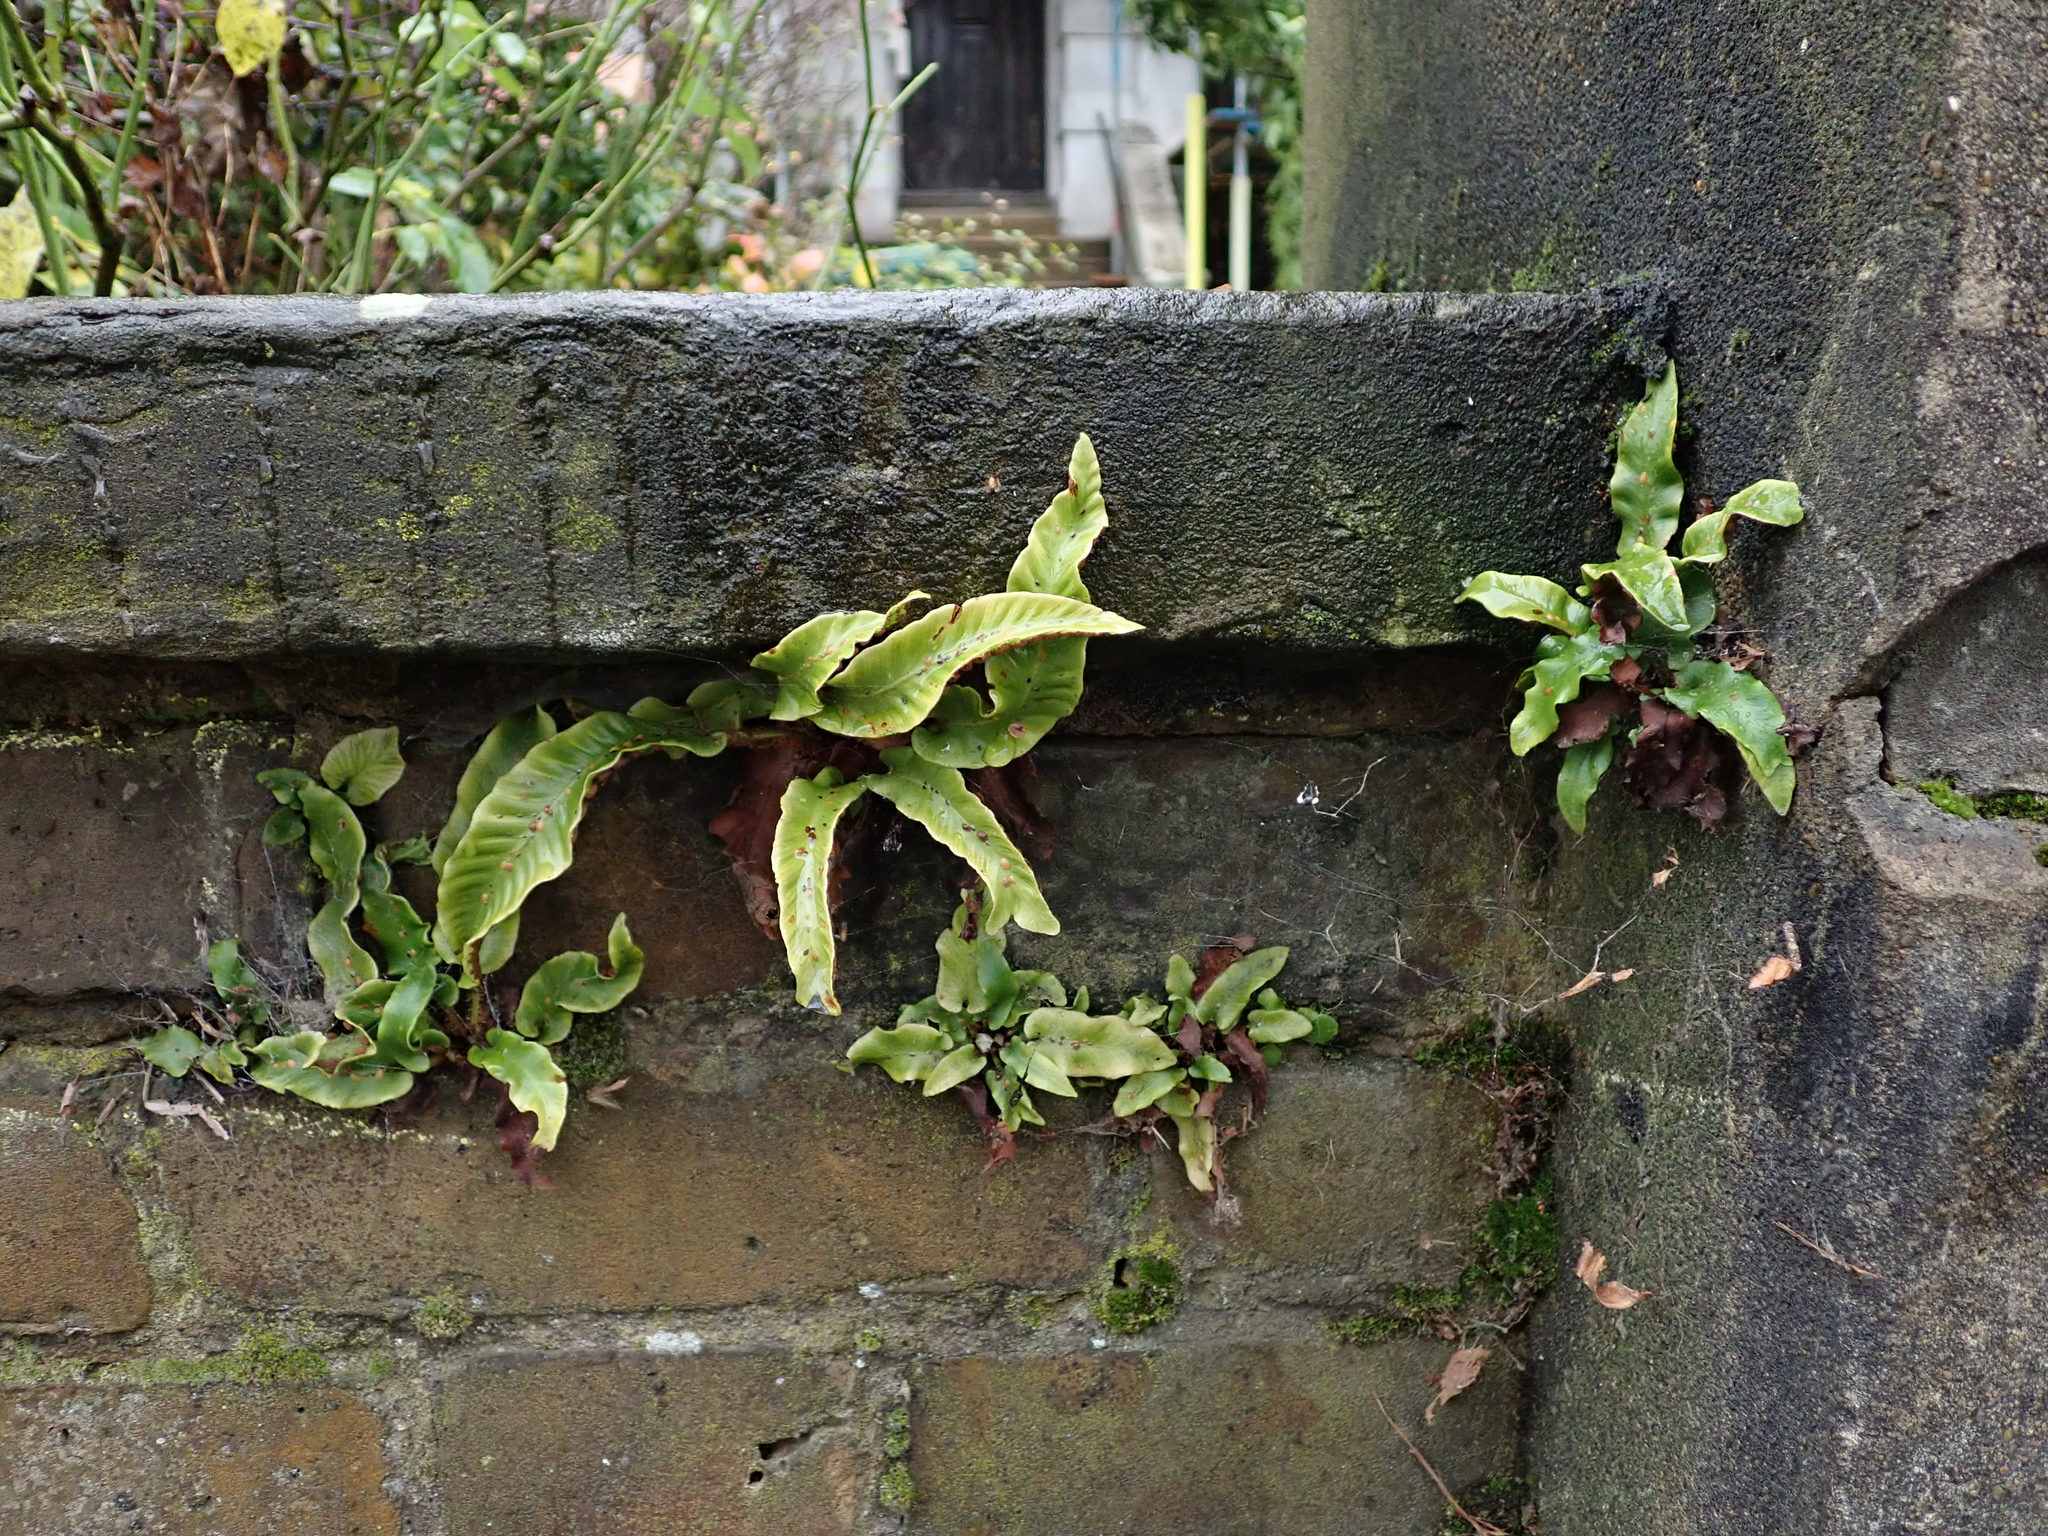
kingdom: Plantae
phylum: Tracheophyta
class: Polypodiopsida
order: Polypodiales
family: Aspleniaceae
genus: Asplenium
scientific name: Asplenium scolopendrium
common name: Hart's-tongue fern
